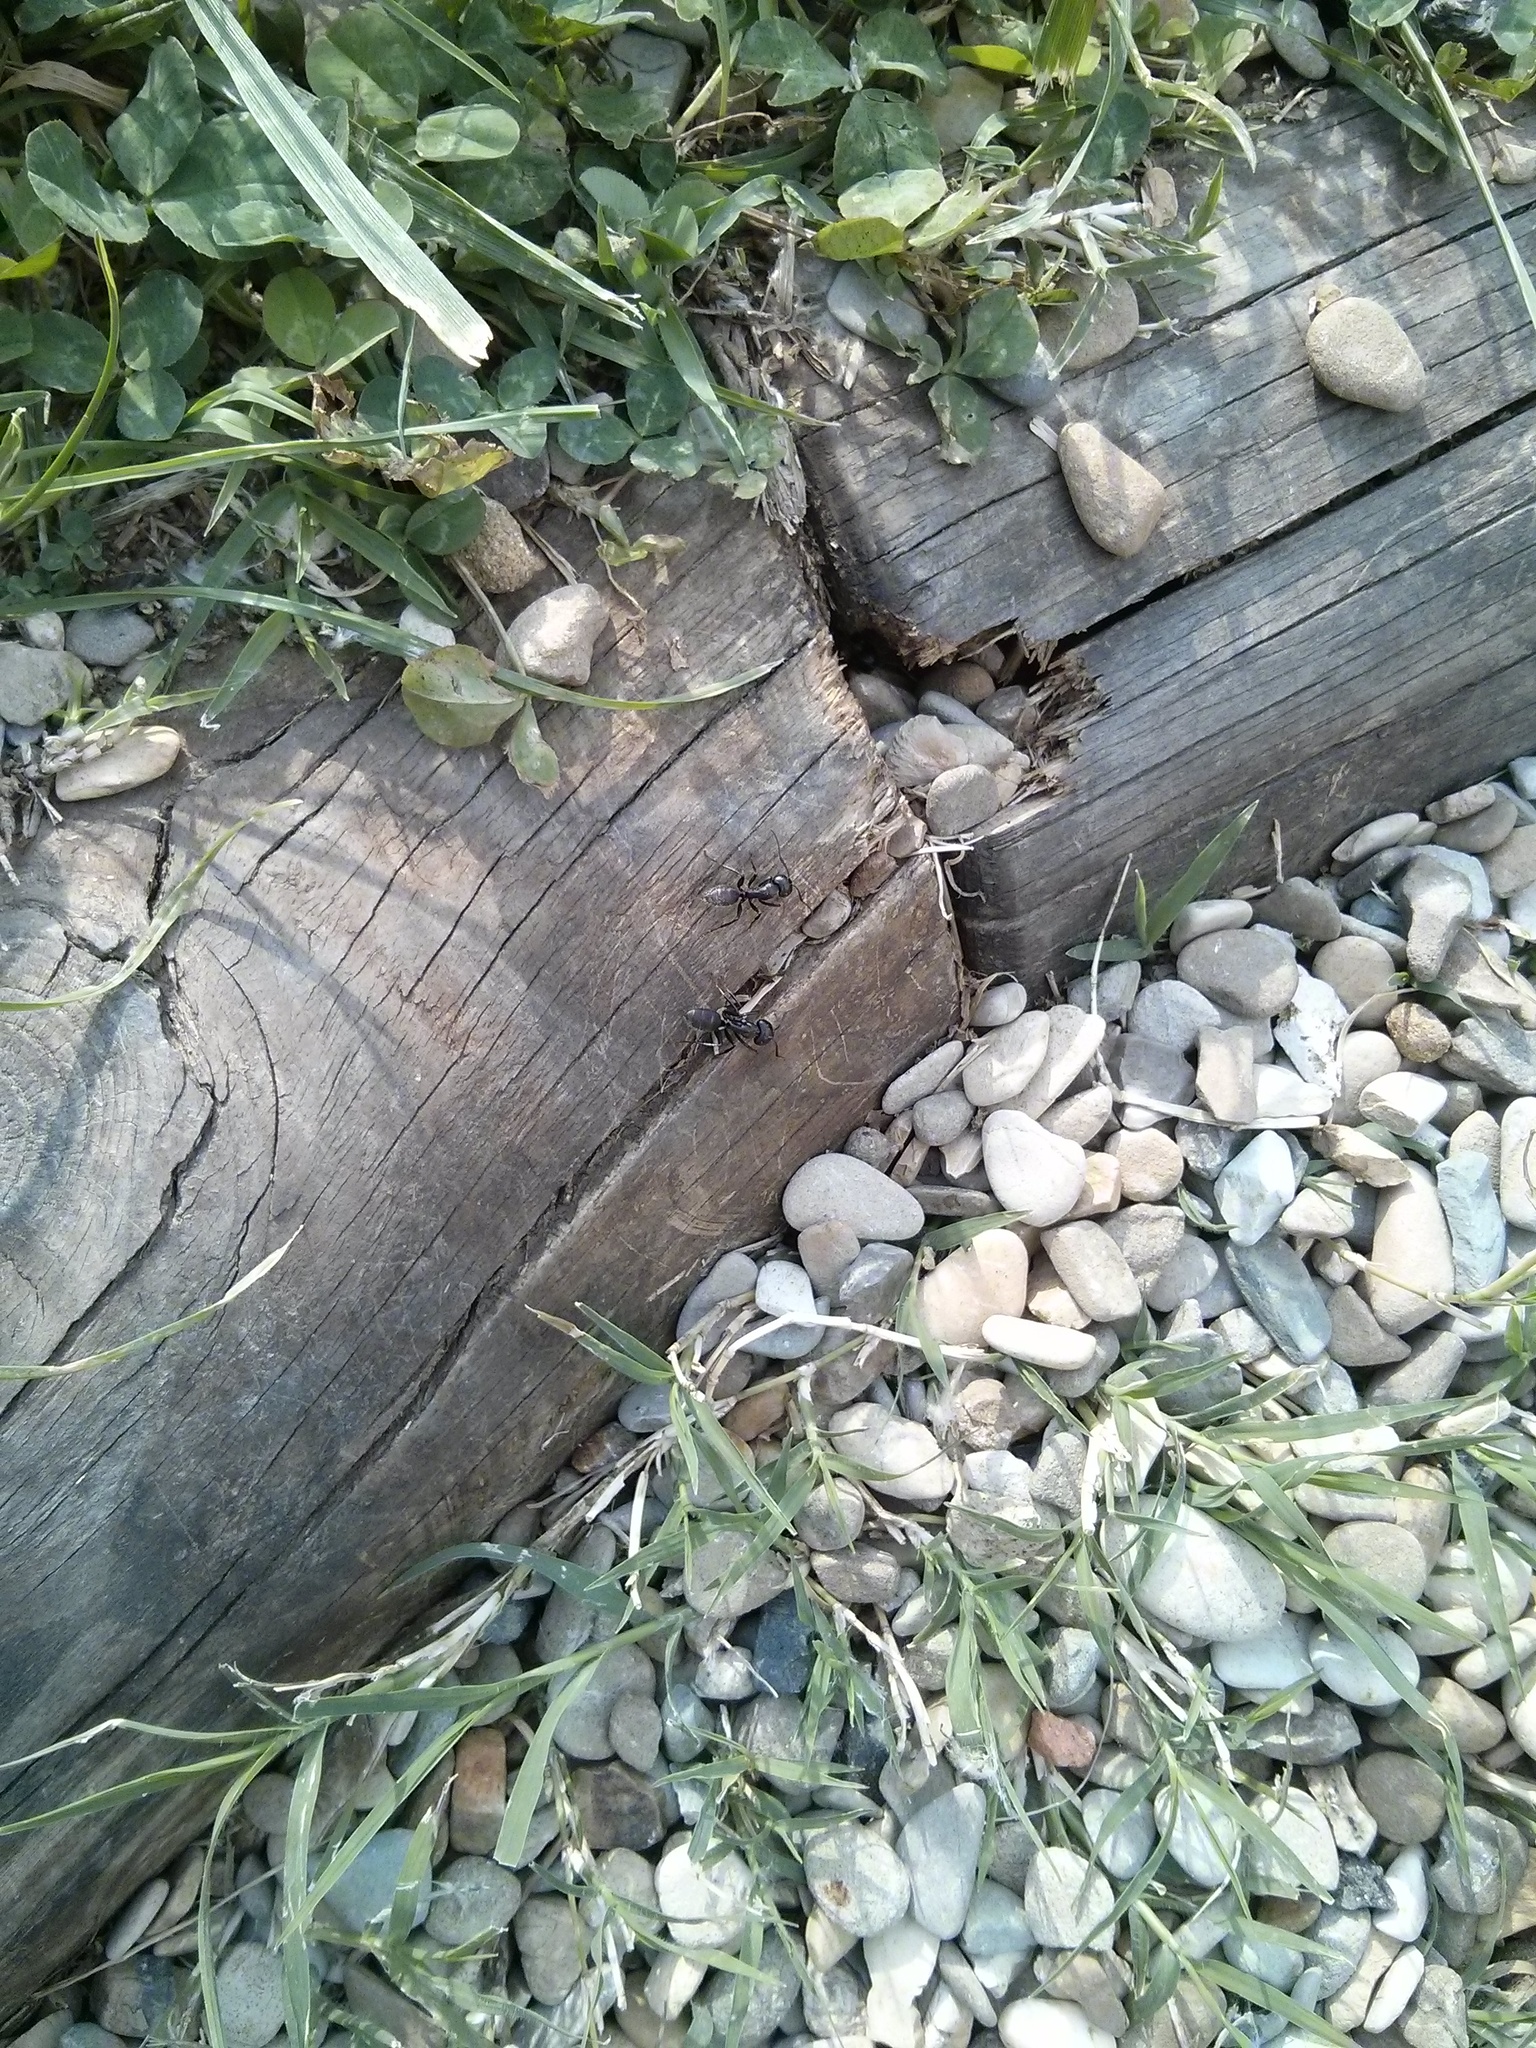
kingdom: Animalia
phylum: Arthropoda
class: Insecta
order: Hymenoptera
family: Formicidae
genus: Camponotus
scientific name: Camponotus vagus
